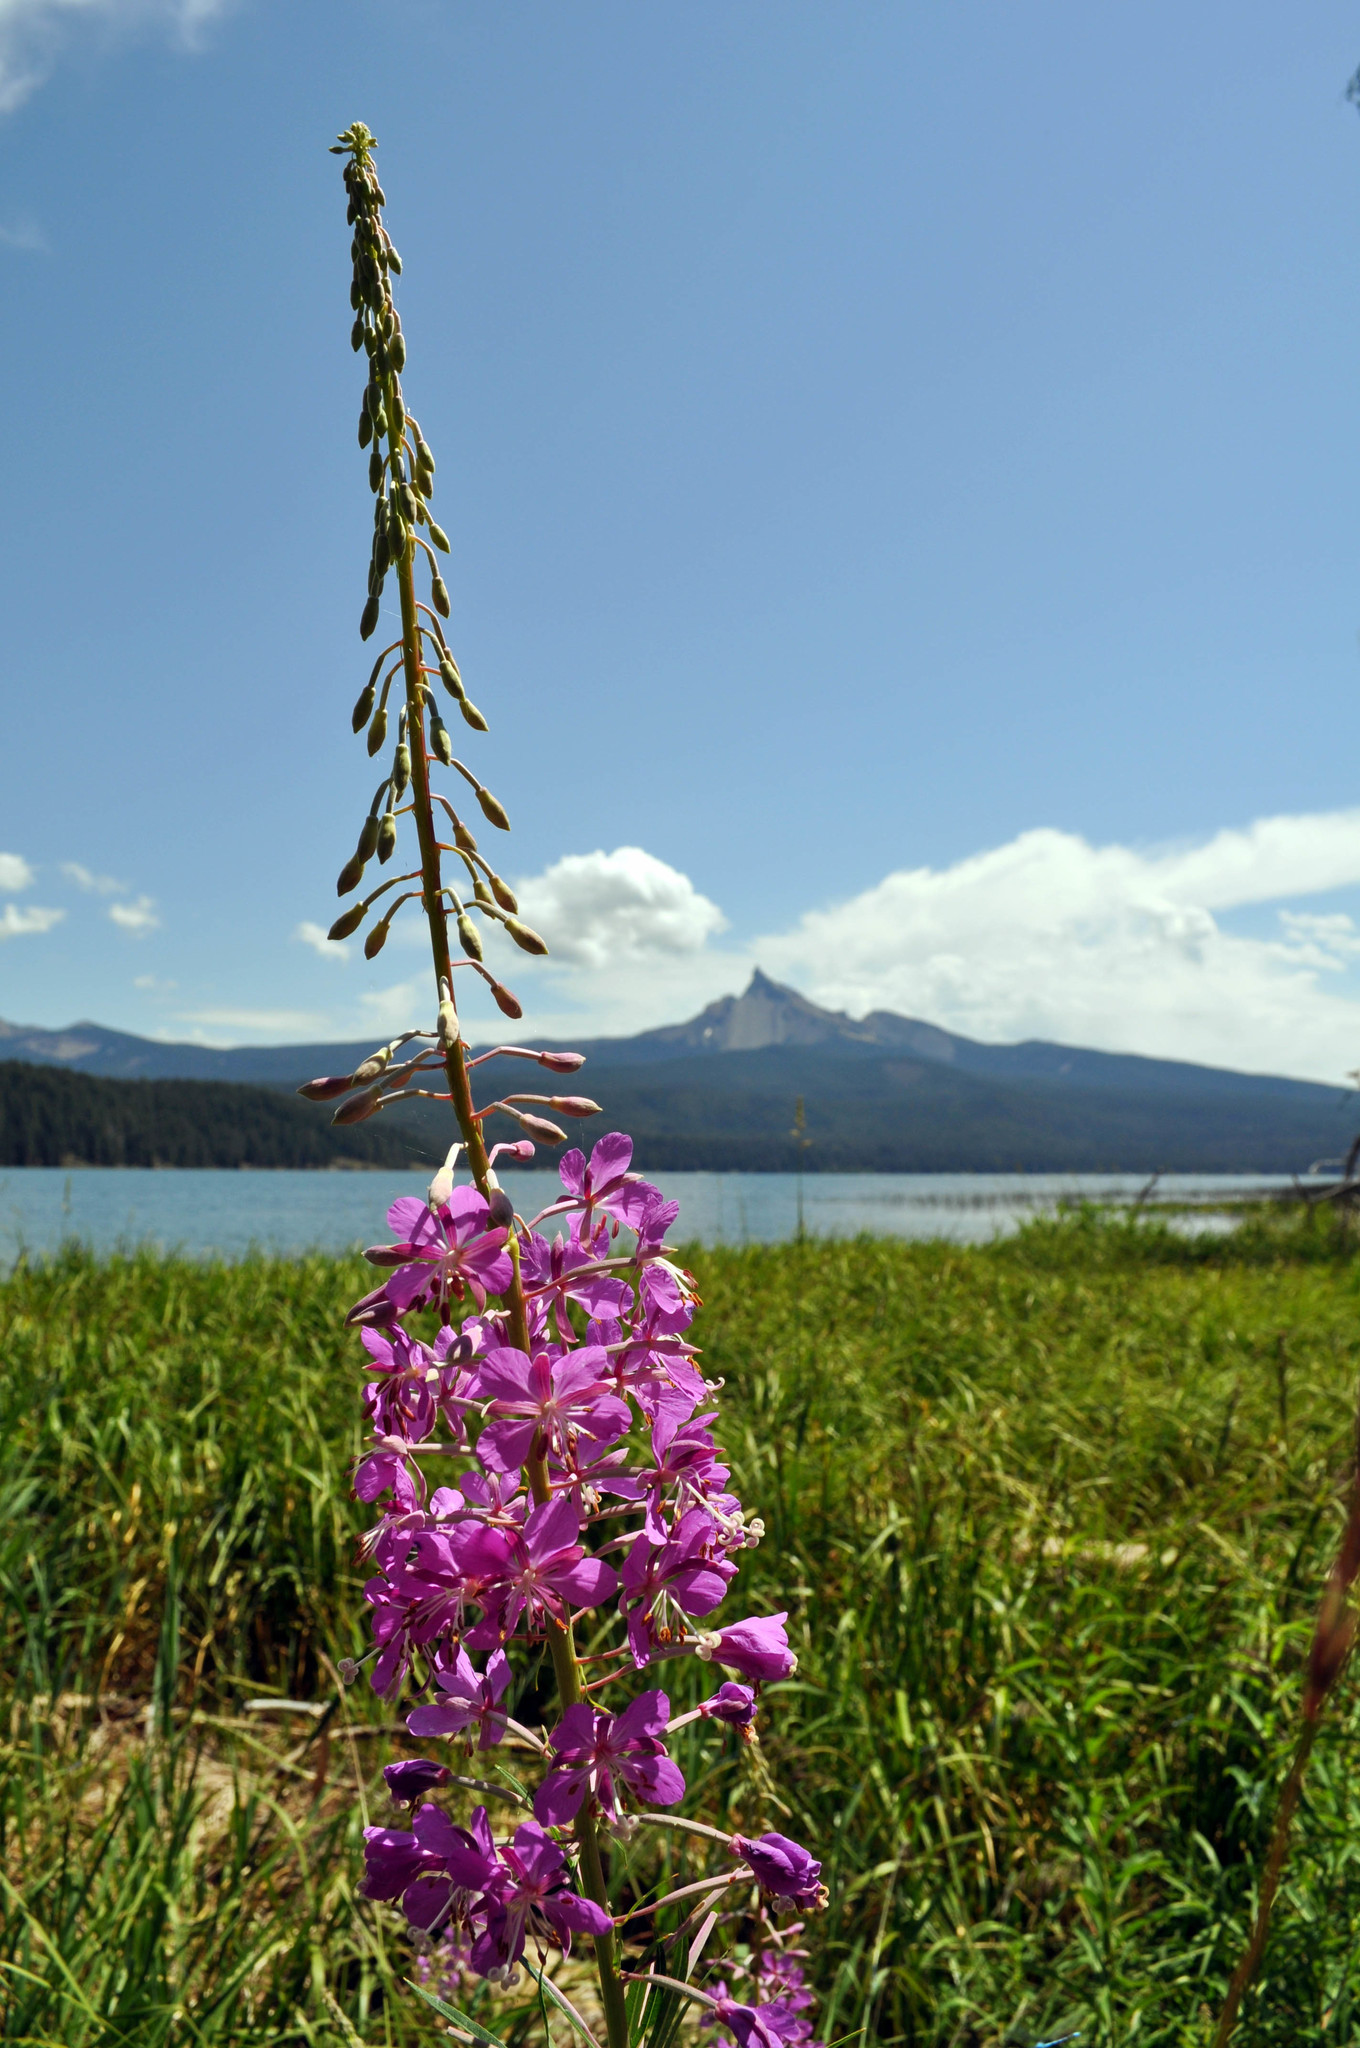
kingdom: Plantae
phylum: Tracheophyta
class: Magnoliopsida
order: Myrtales
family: Onagraceae
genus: Chamaenerion
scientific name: Chamaenerion angustifolium
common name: Fireweed
